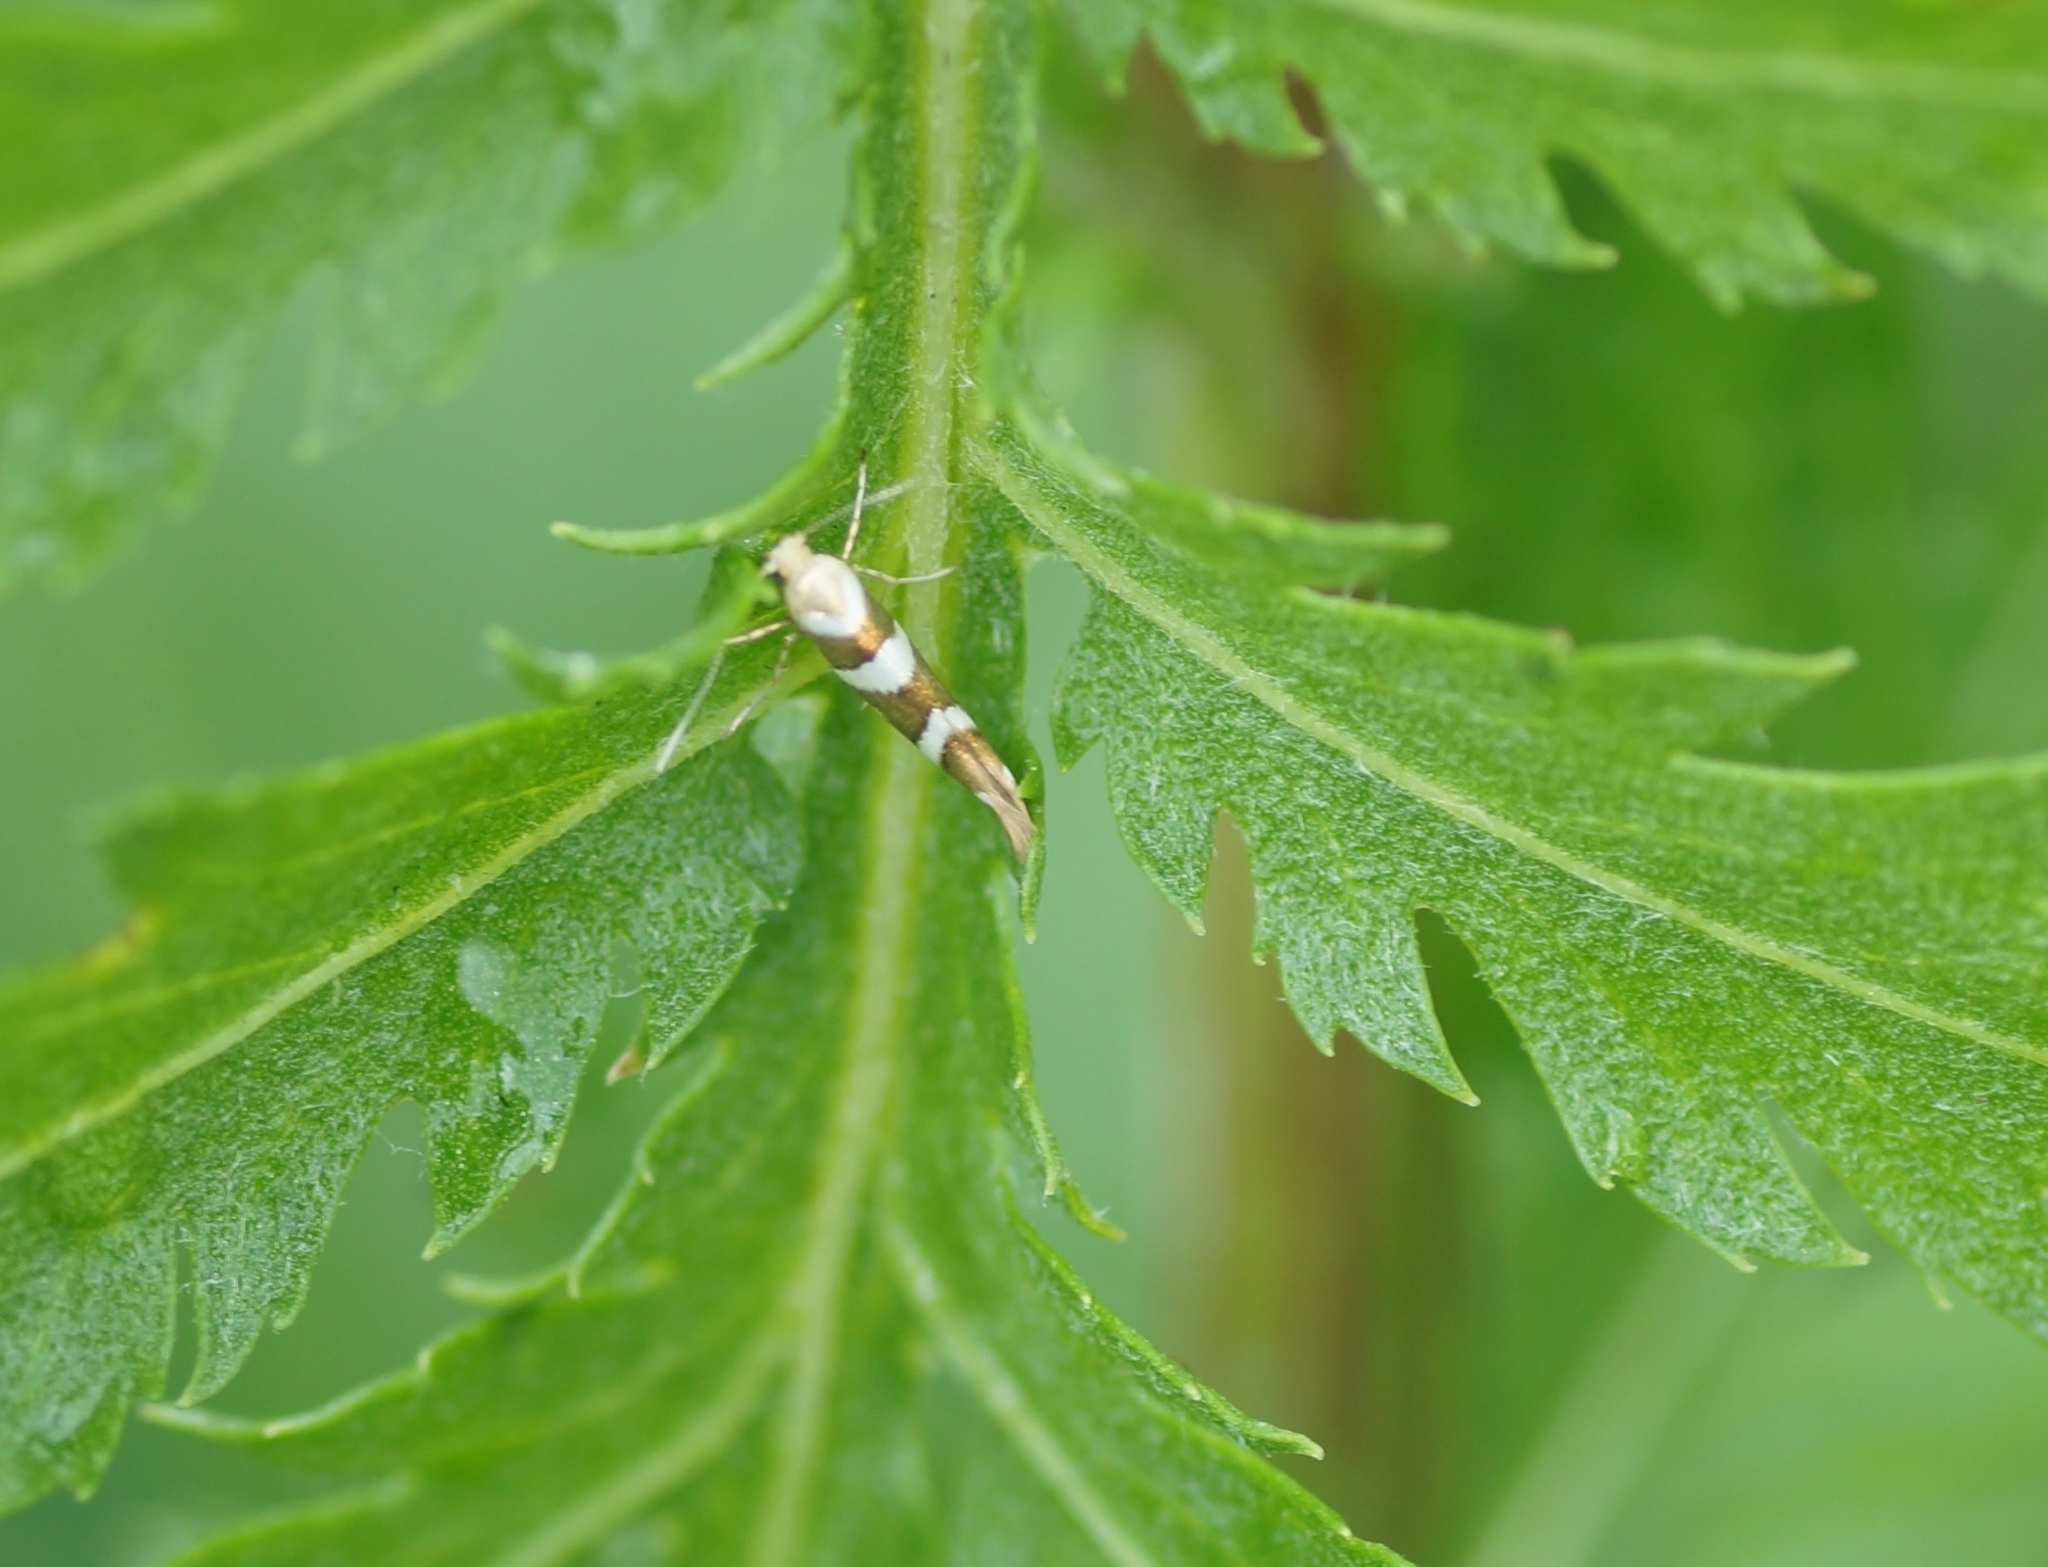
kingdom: Animalia
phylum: Arthropoda
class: Insecta
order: Lepidoptera
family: Argyresthiidae
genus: Argyresthia
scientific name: Argyresthia brockeella
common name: Gold-ribbon argent
